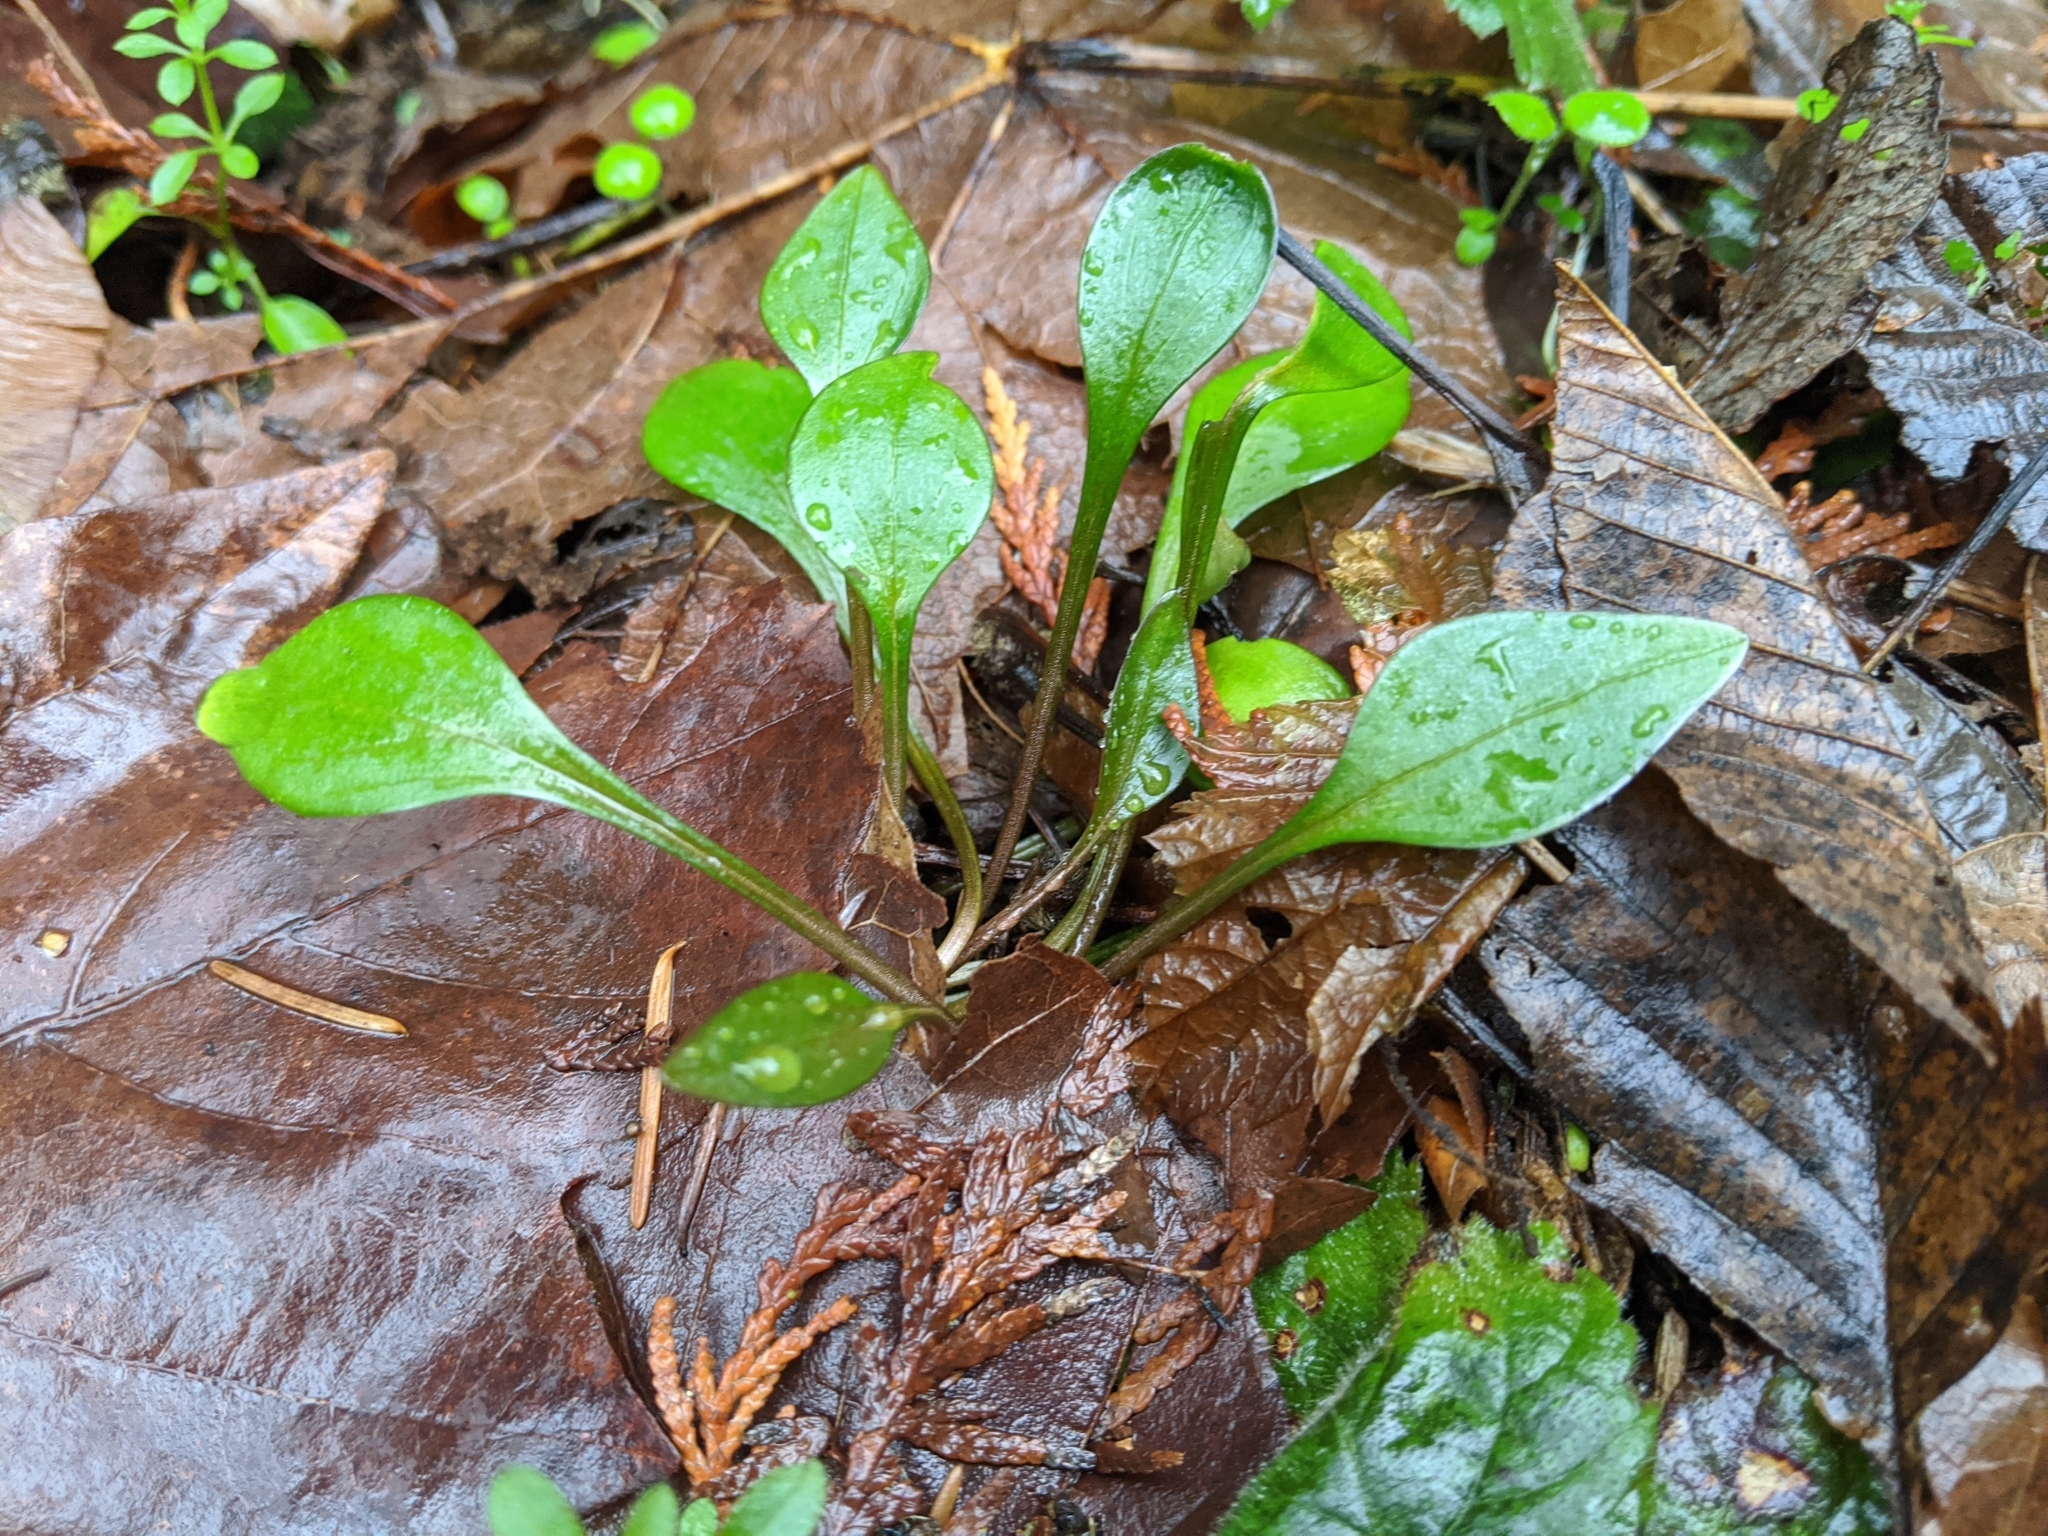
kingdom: Plantae
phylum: Tracheophyta
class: Magnoliopsida
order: Caryophyllales
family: Montiaceae
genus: Claytonia
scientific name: Claytonia sibirica
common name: Pink purslane
